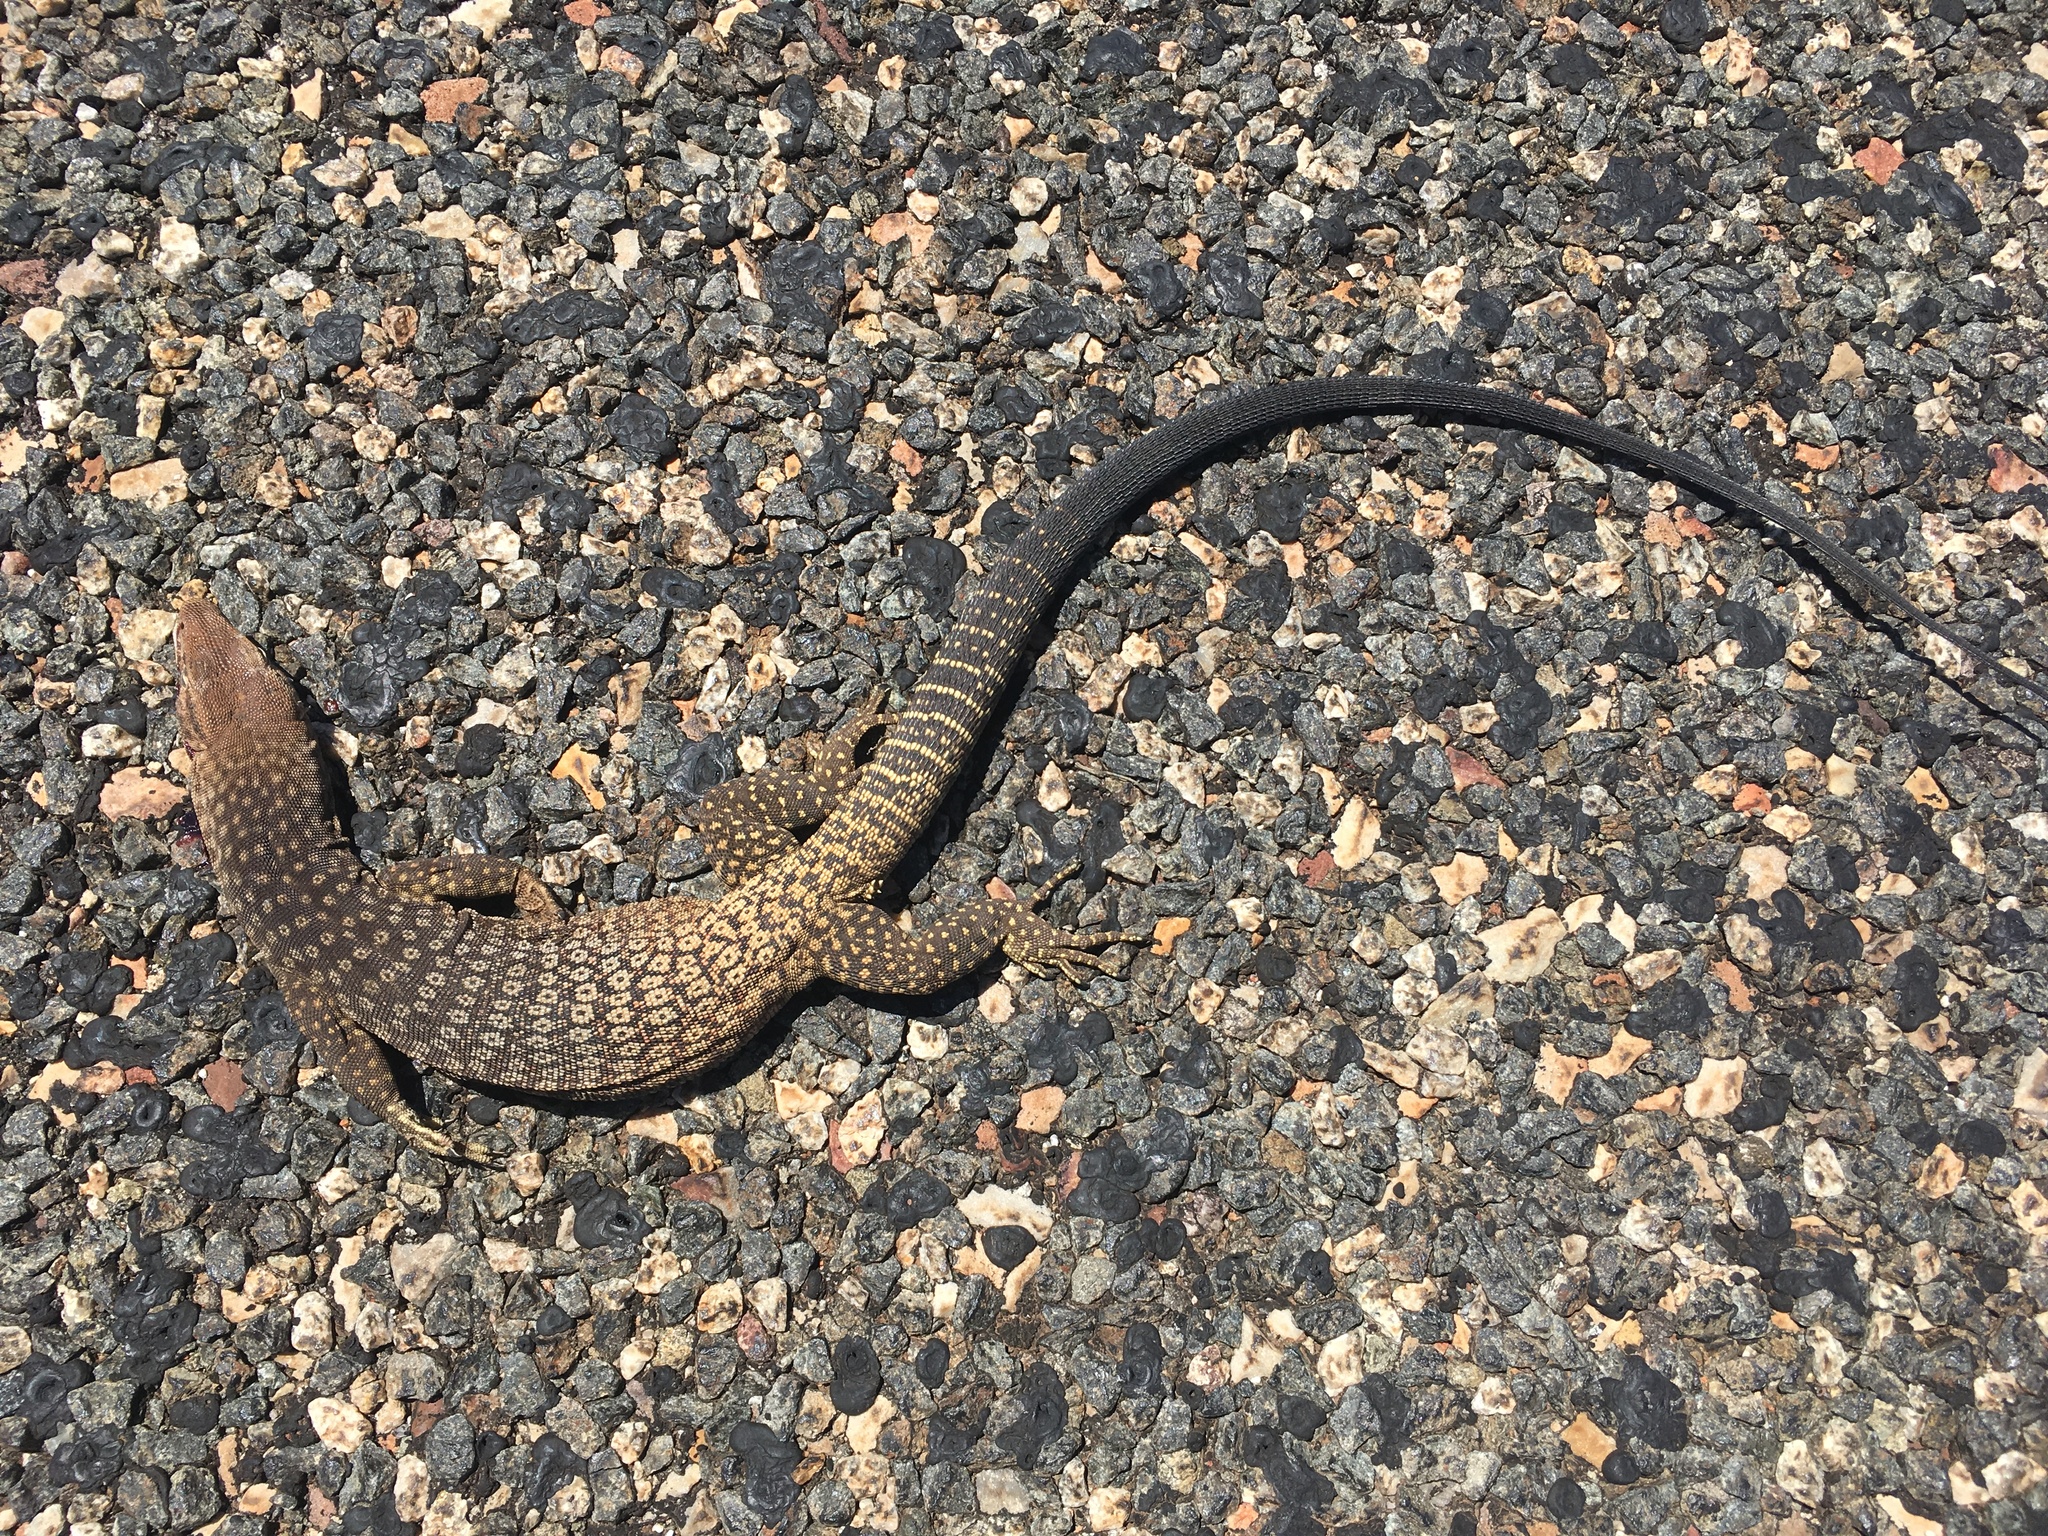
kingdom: Animalia
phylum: Chordata
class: Squamata
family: Varanidae
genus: Varanus
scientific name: Varanus tristis
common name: Arid monitor
